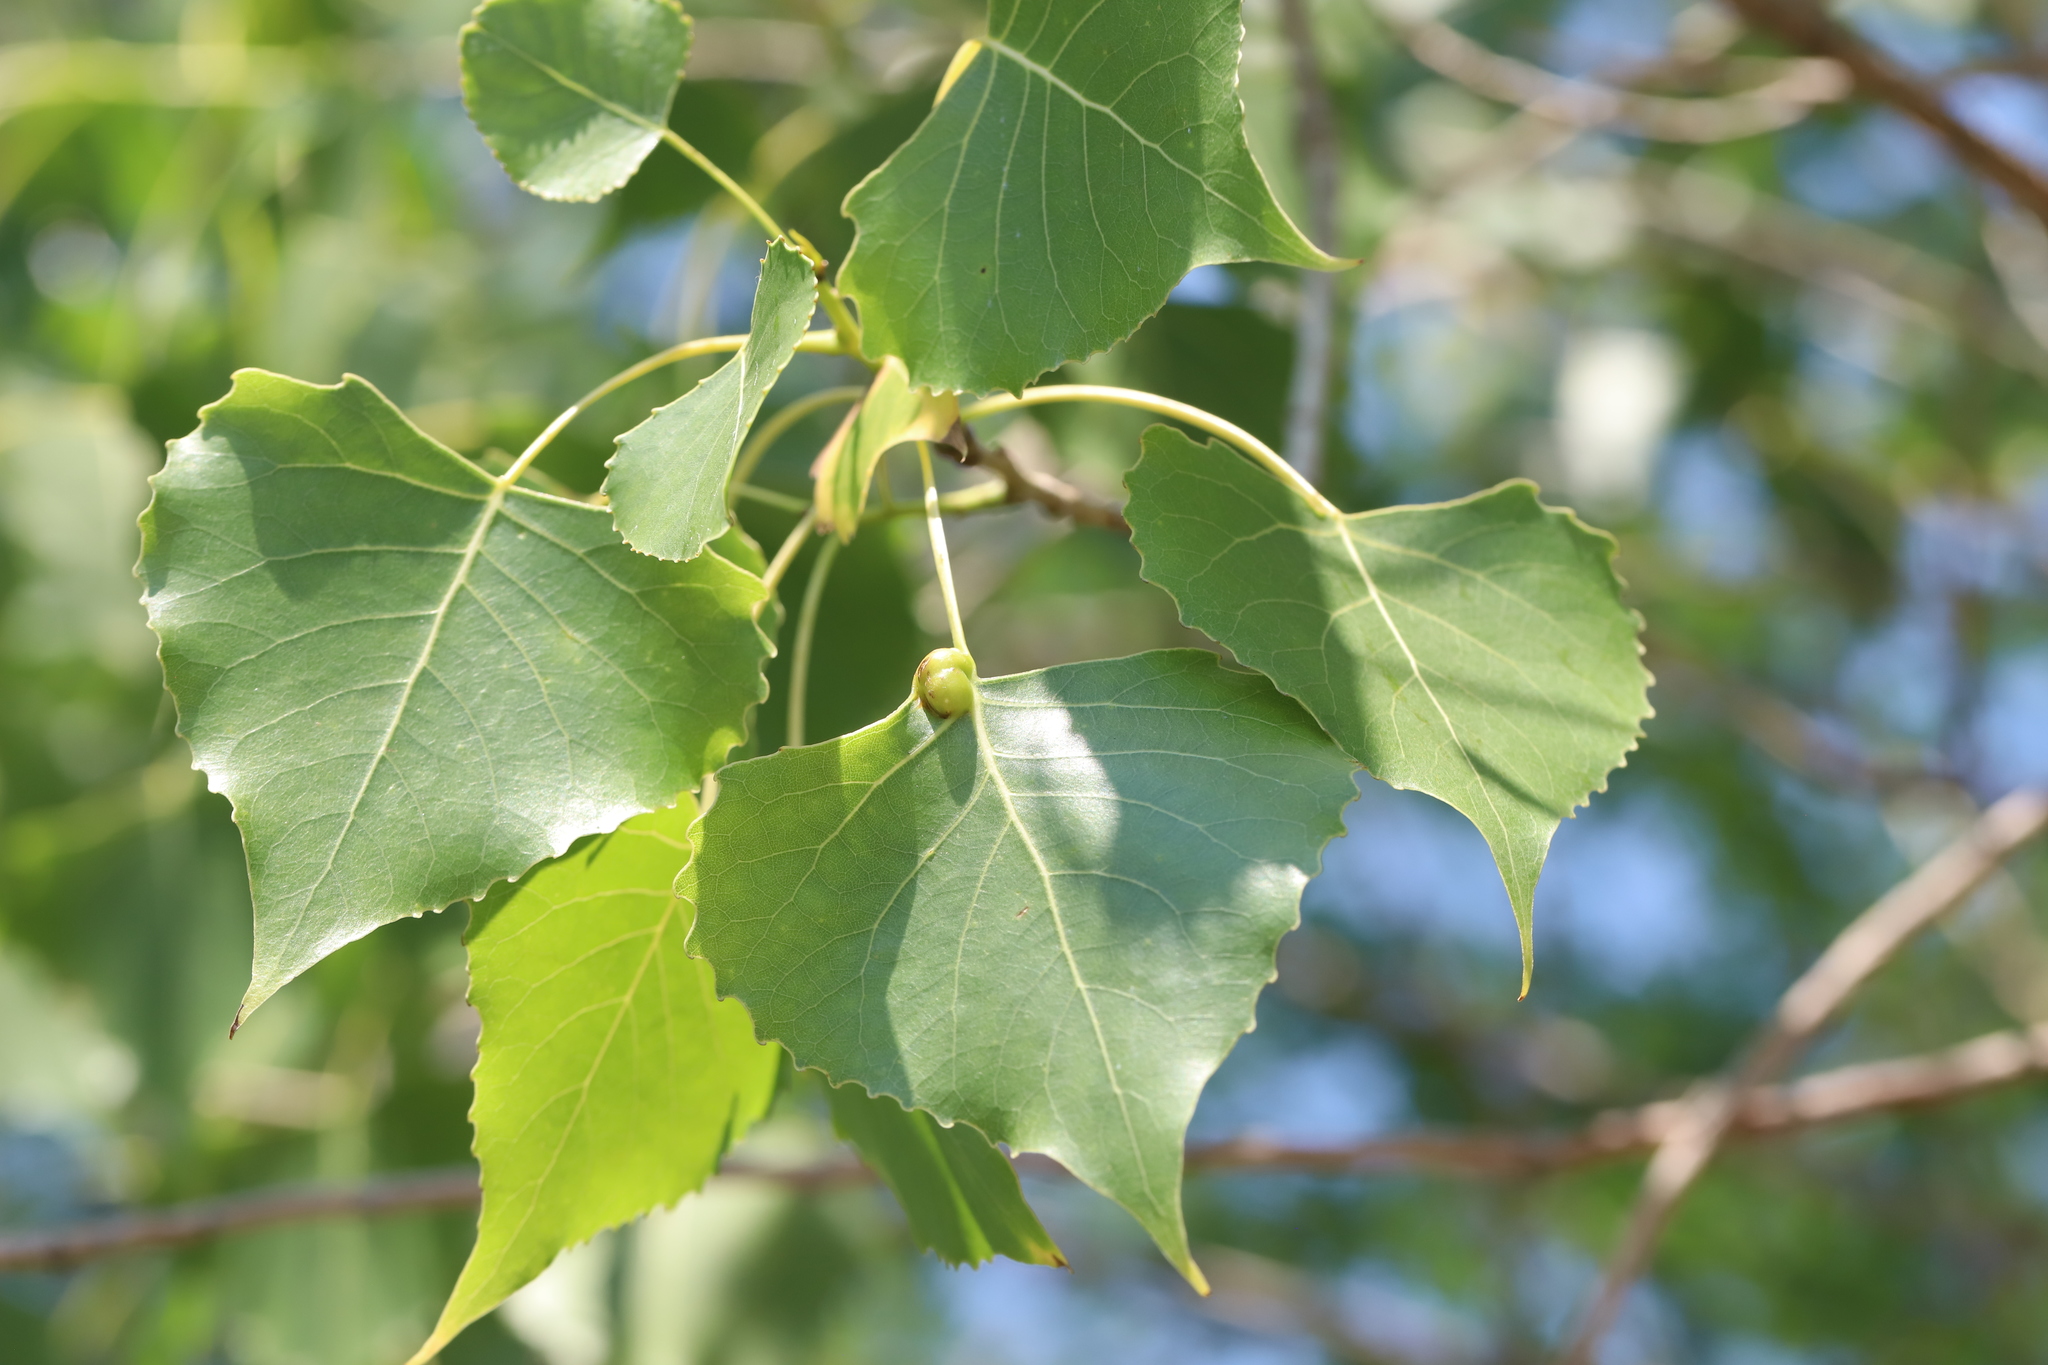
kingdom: Animalia
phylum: Arthropoda
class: Insecta
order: Hemiptera
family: Aphididae
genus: Pemphigus
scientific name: Pemphigus populitransversus
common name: Poplar petiolegall aphid
